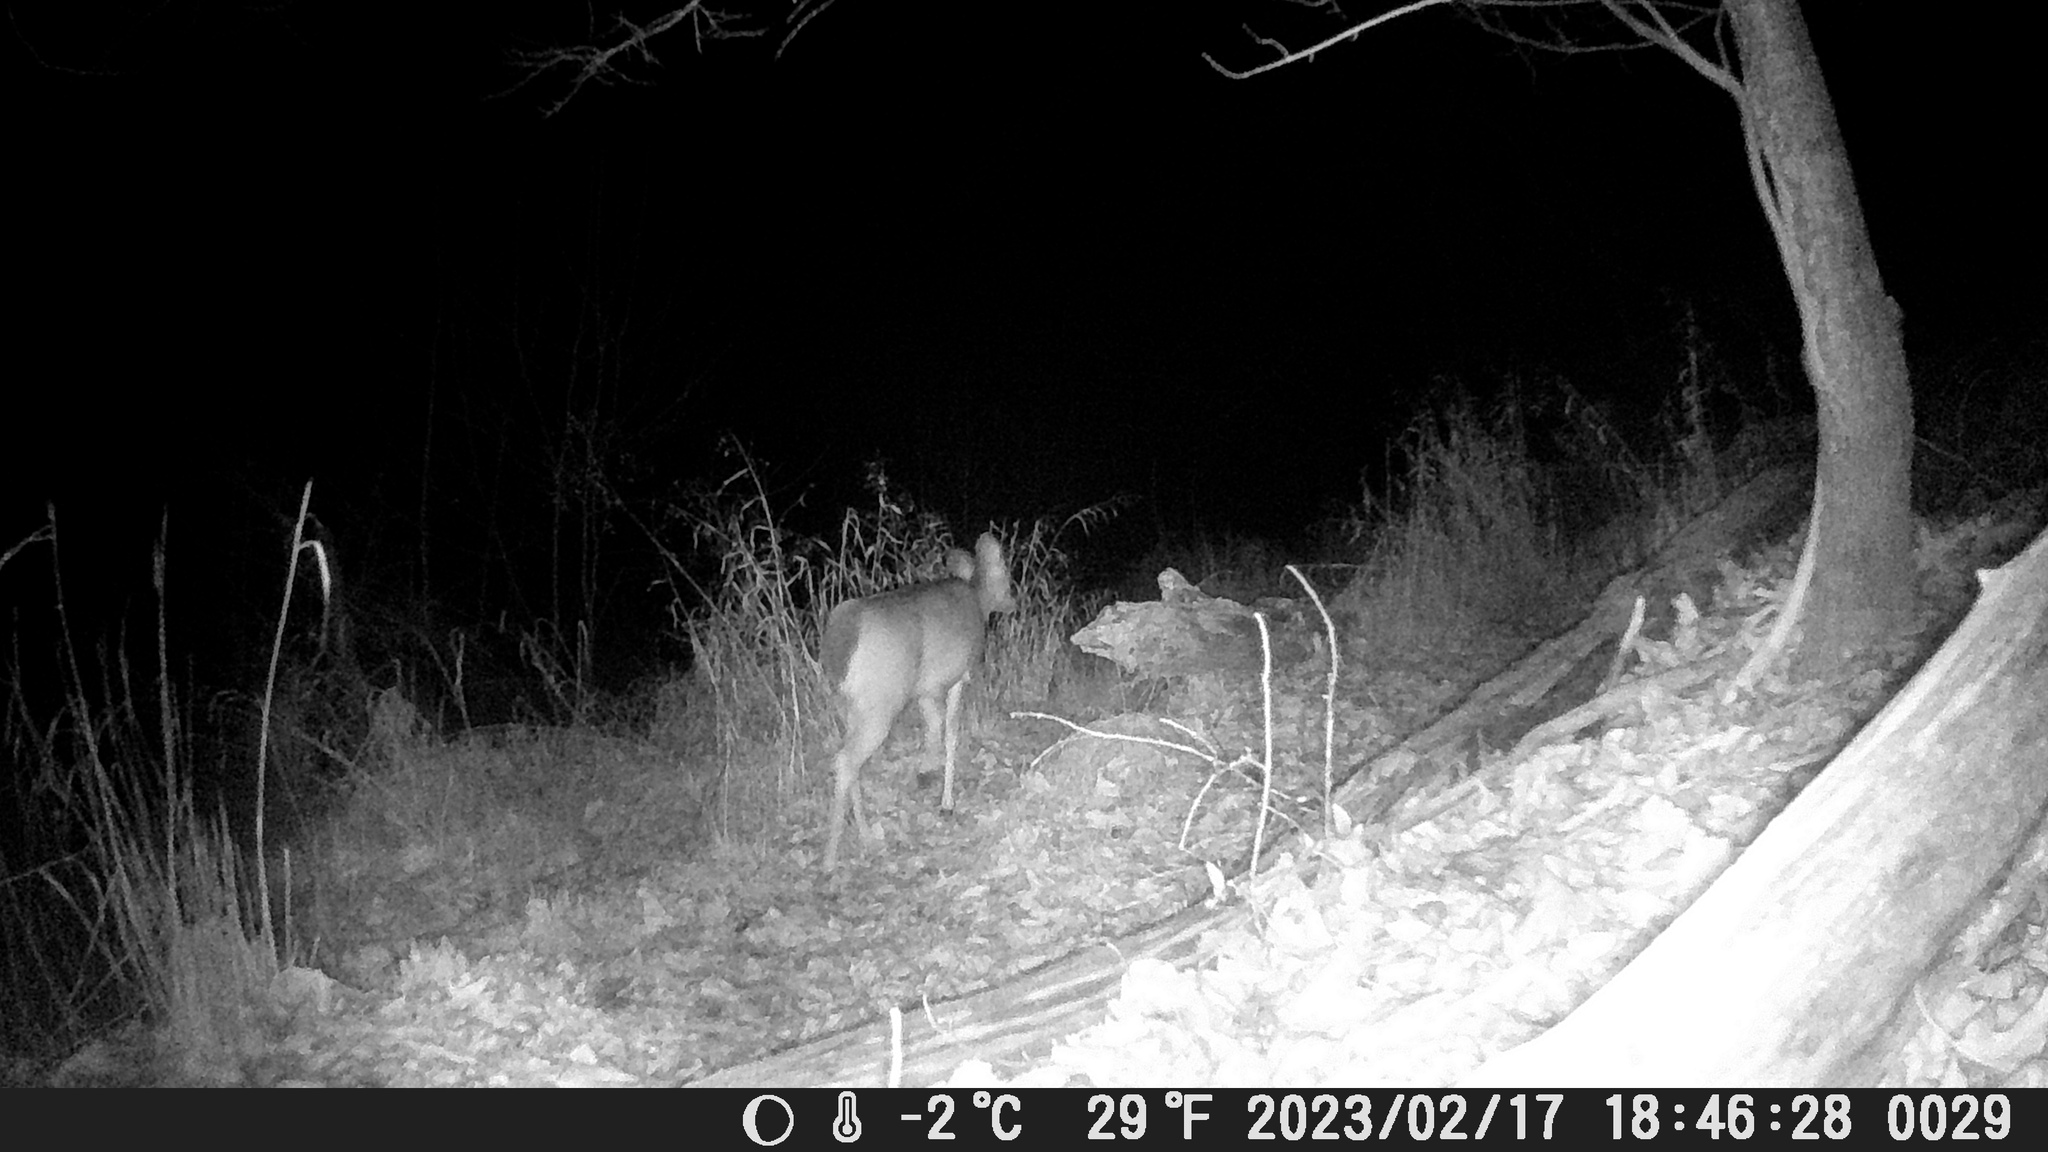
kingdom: Animalia
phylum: Chordata
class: Mammalia
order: Artiodactyla
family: Cervidae
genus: Odocoileus
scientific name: Odocoileus virginianus
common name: White-tailed deer
